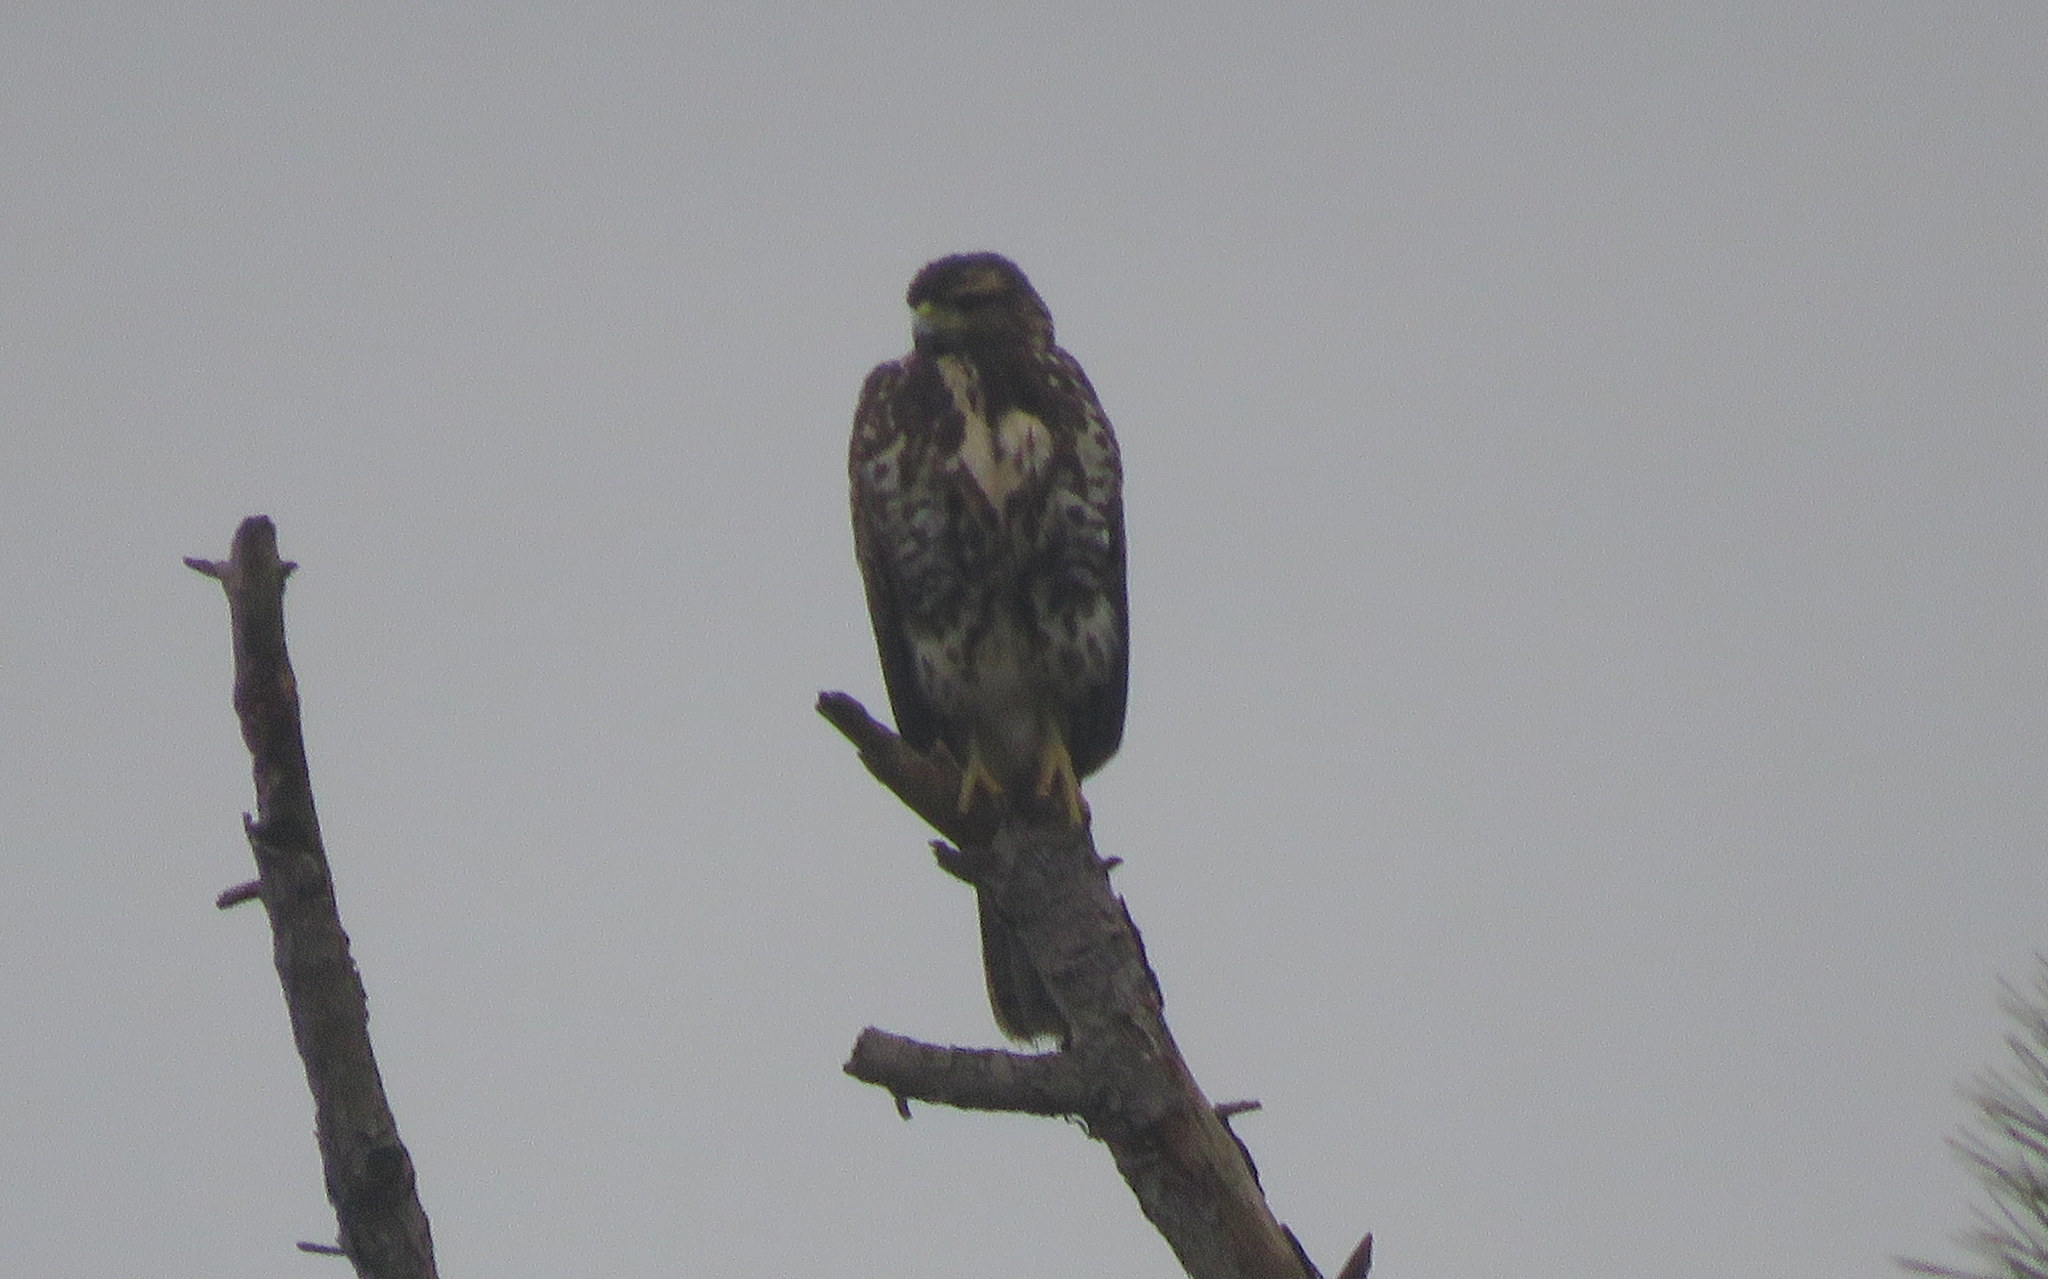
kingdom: Animalia
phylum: Chordata
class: Aves
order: Accipitriformes
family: Accipitridae
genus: Parabuteo
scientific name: Parabuteo unicinctus
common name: Harris's hawk
